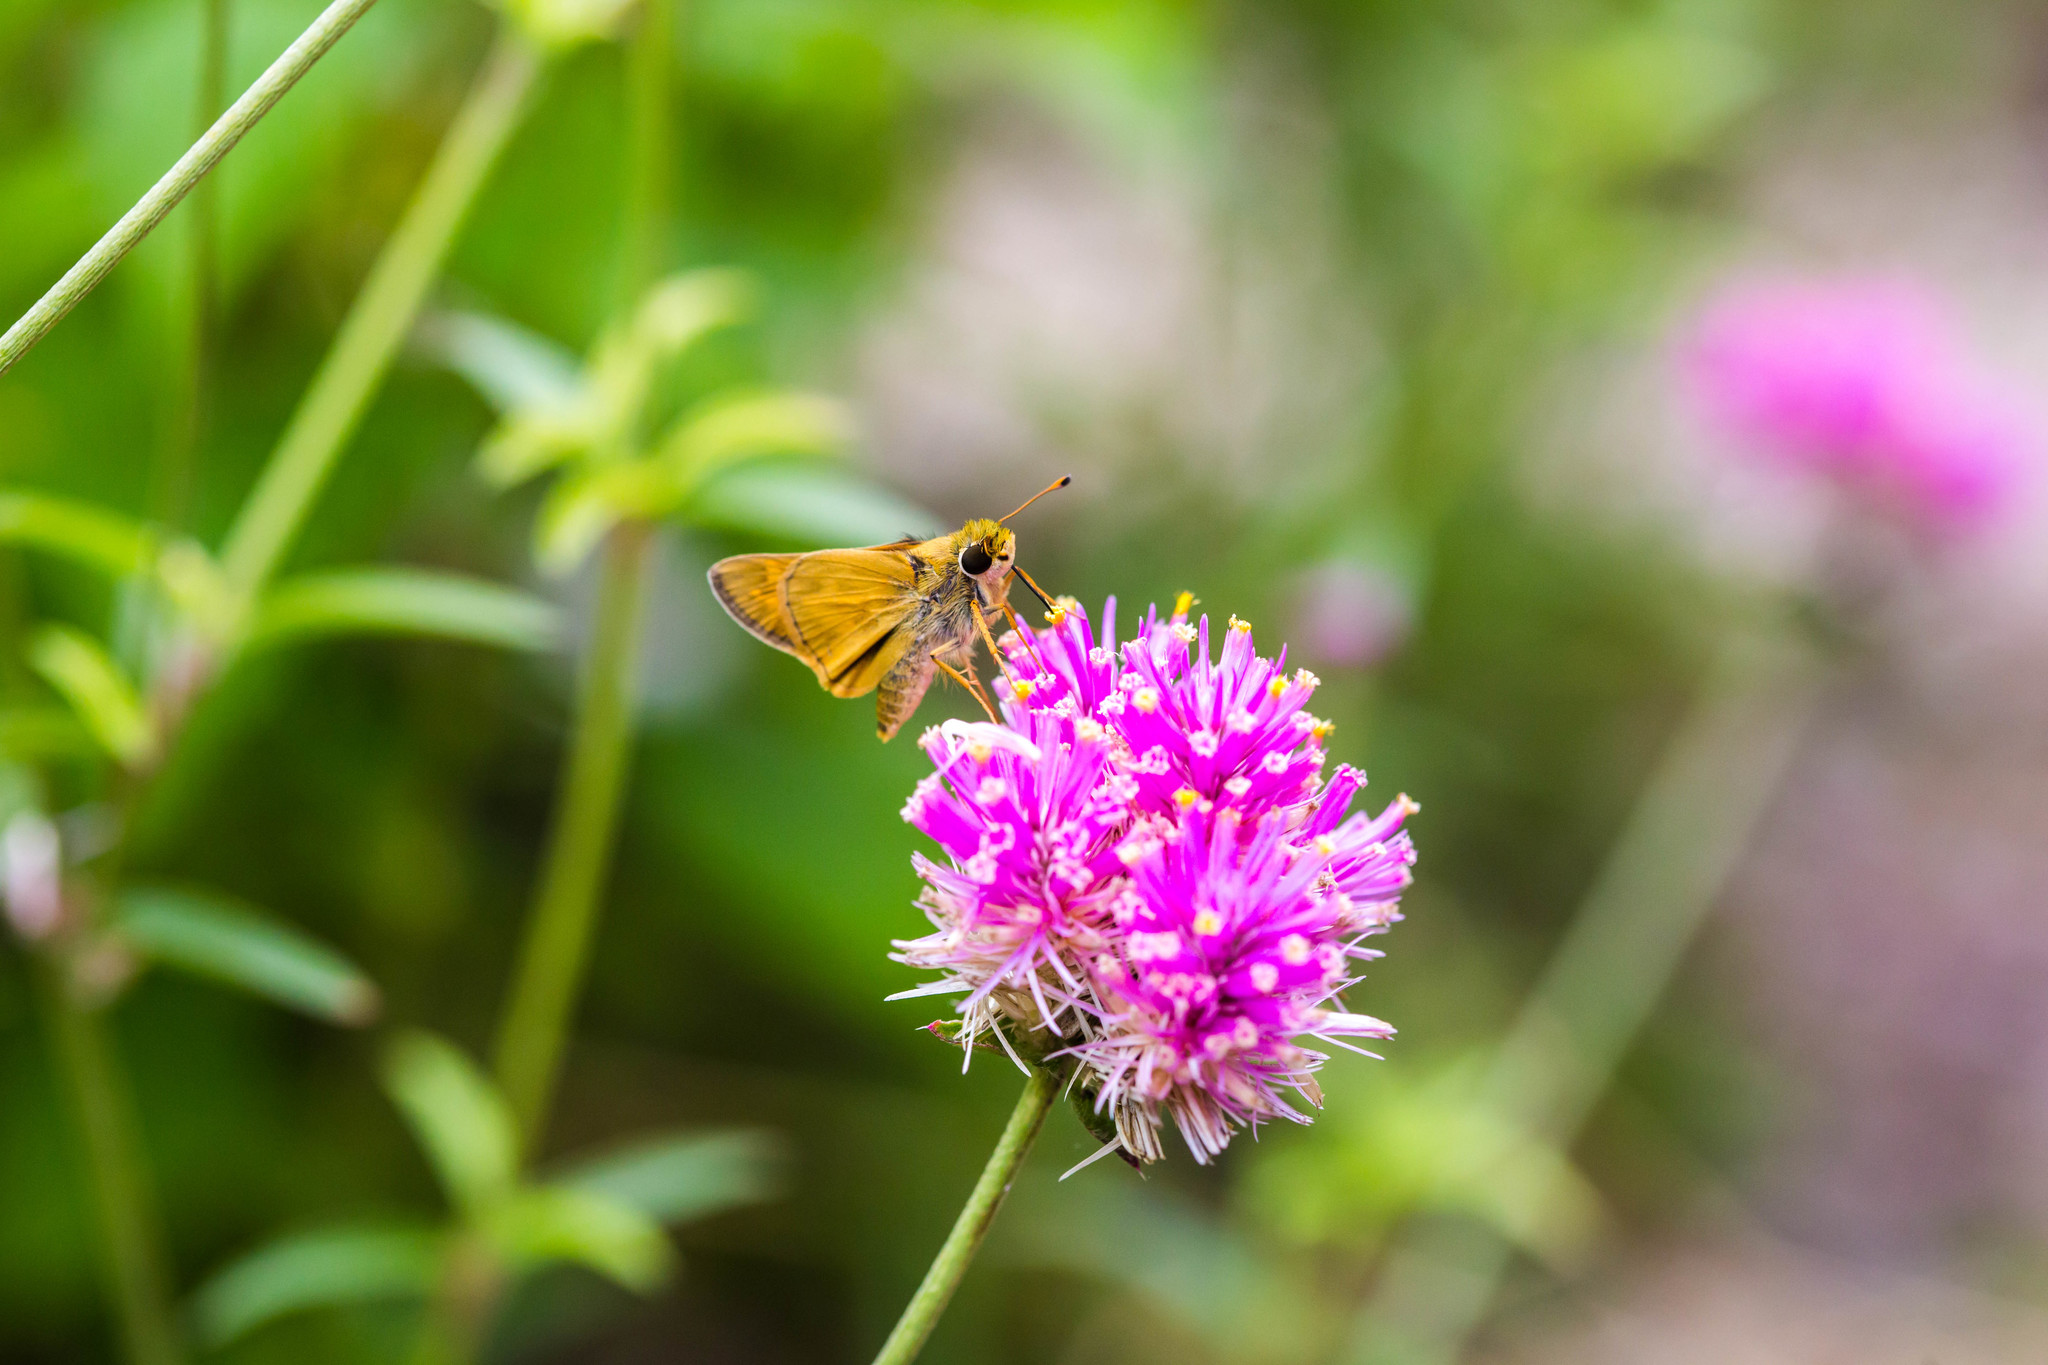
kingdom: Animalia
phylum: Arthropoda
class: Insecta
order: Lepidoptera
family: Hesperiidae
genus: Atalopedes
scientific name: Atalopedes
